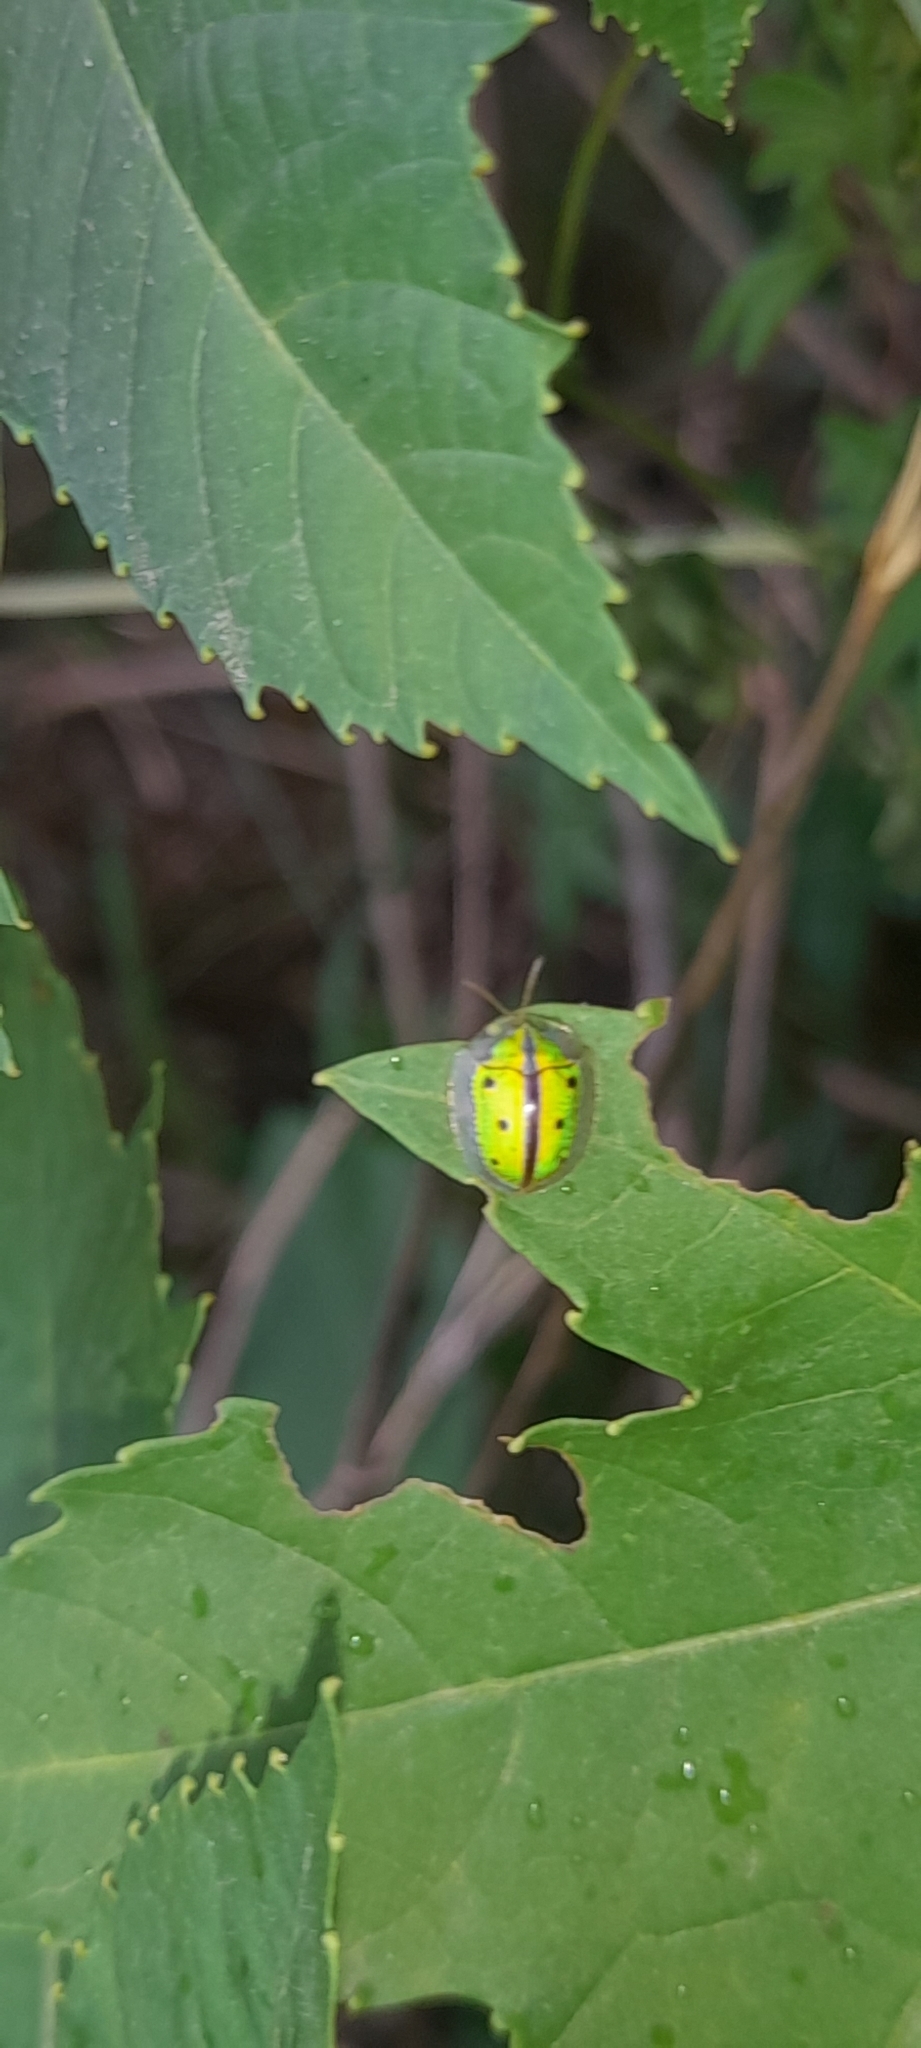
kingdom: Animalia
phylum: Arthropoda
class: Insecta
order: Coleoptera
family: Chrysomelidae
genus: Chiridopsis
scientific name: Chiridopsis bipunctata
